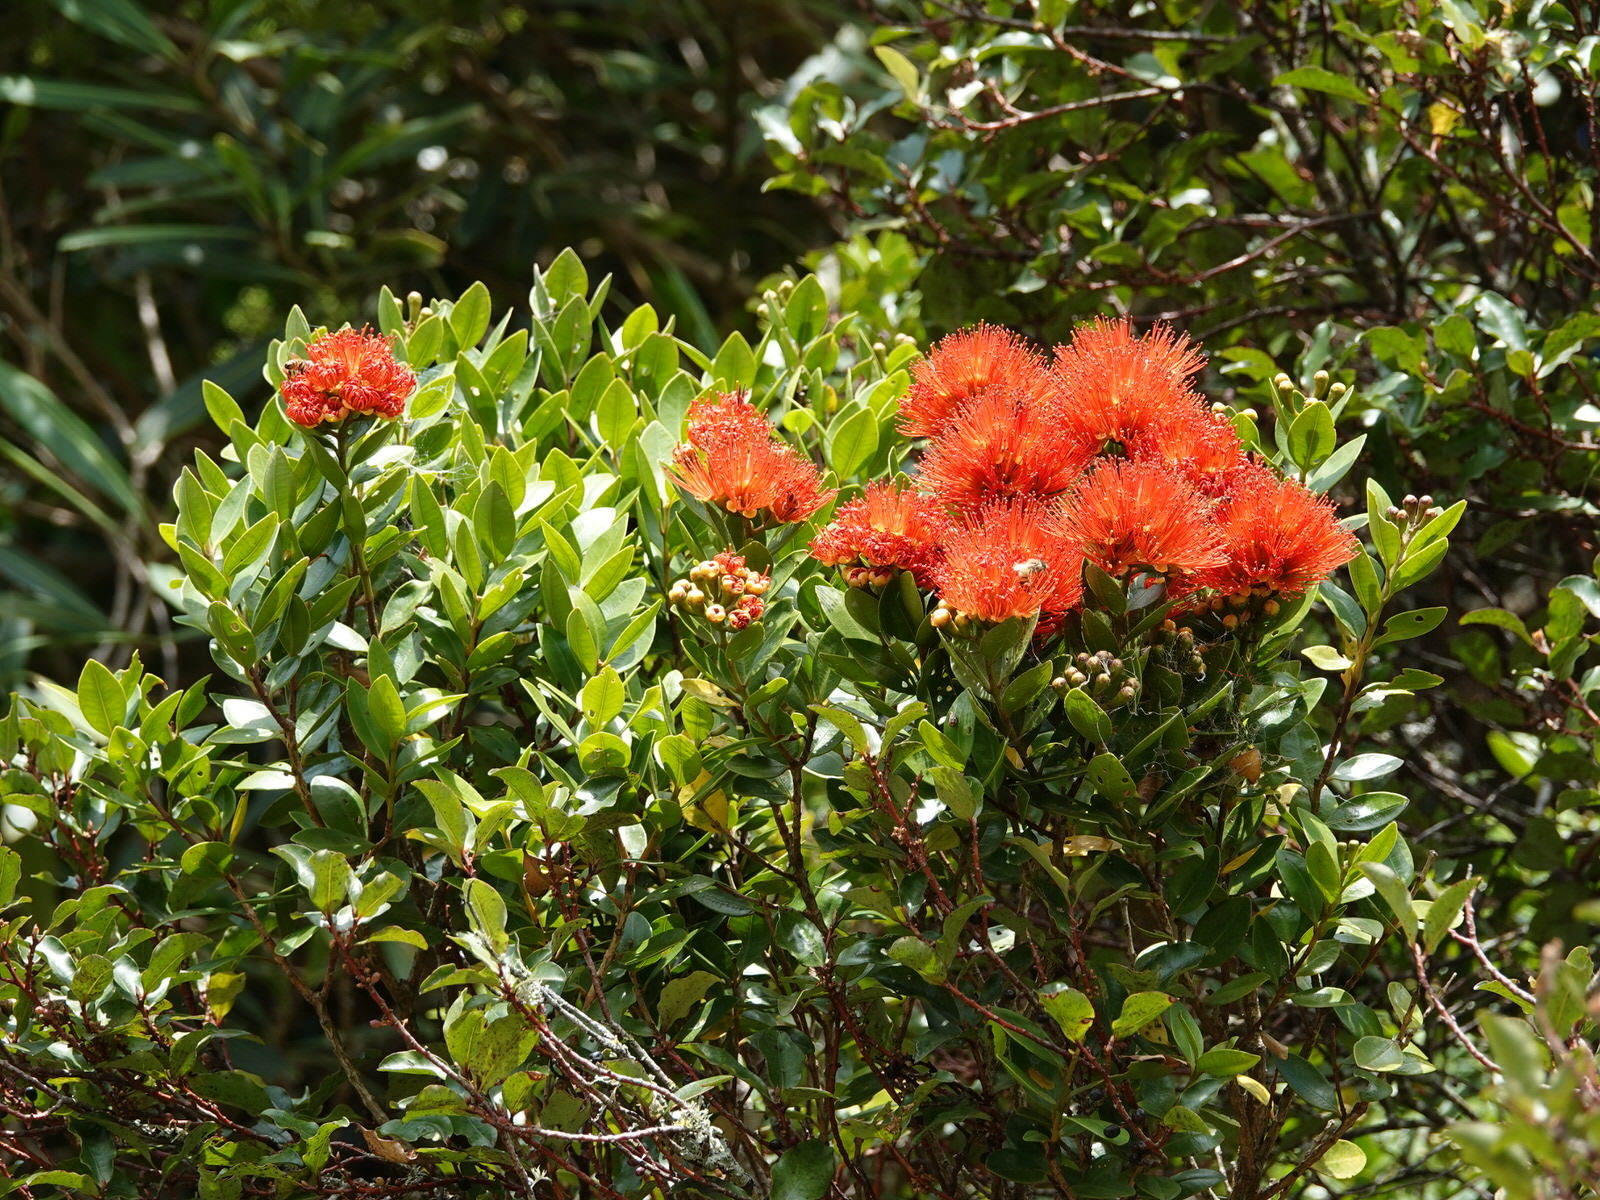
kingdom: Plantae
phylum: Tracheophyta
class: Magnoliopsida
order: Myrtales
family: Myrtaceae
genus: Metrosideros
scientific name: Metrosideros fulgens
